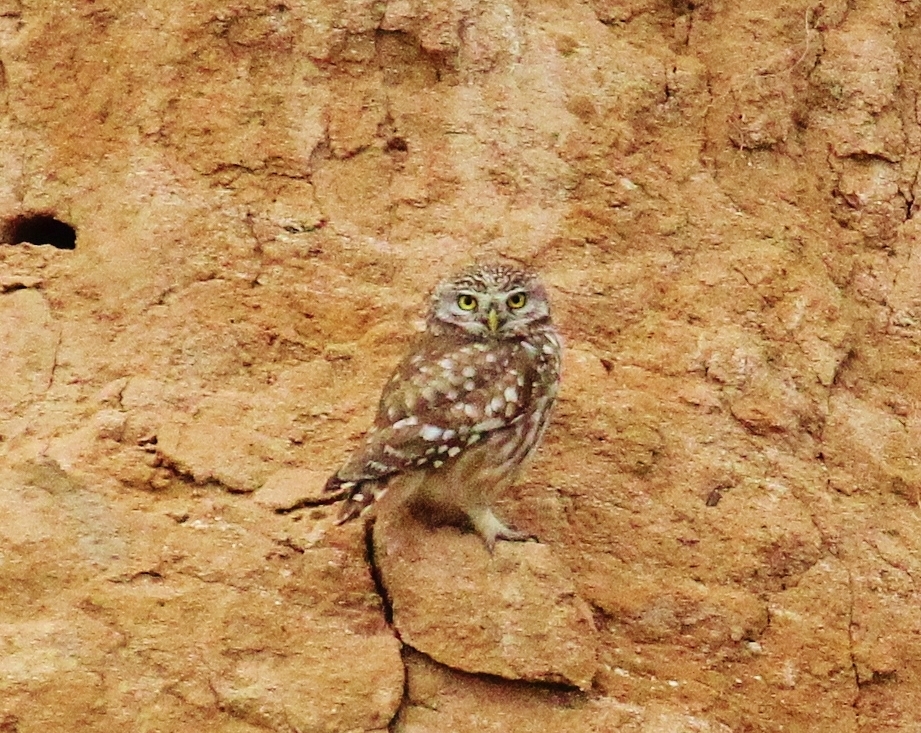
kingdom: Animalia
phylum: Chordata
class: Aves
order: Strigiformes
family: Strigidae
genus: Athene
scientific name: Athene noctua
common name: Little owl
